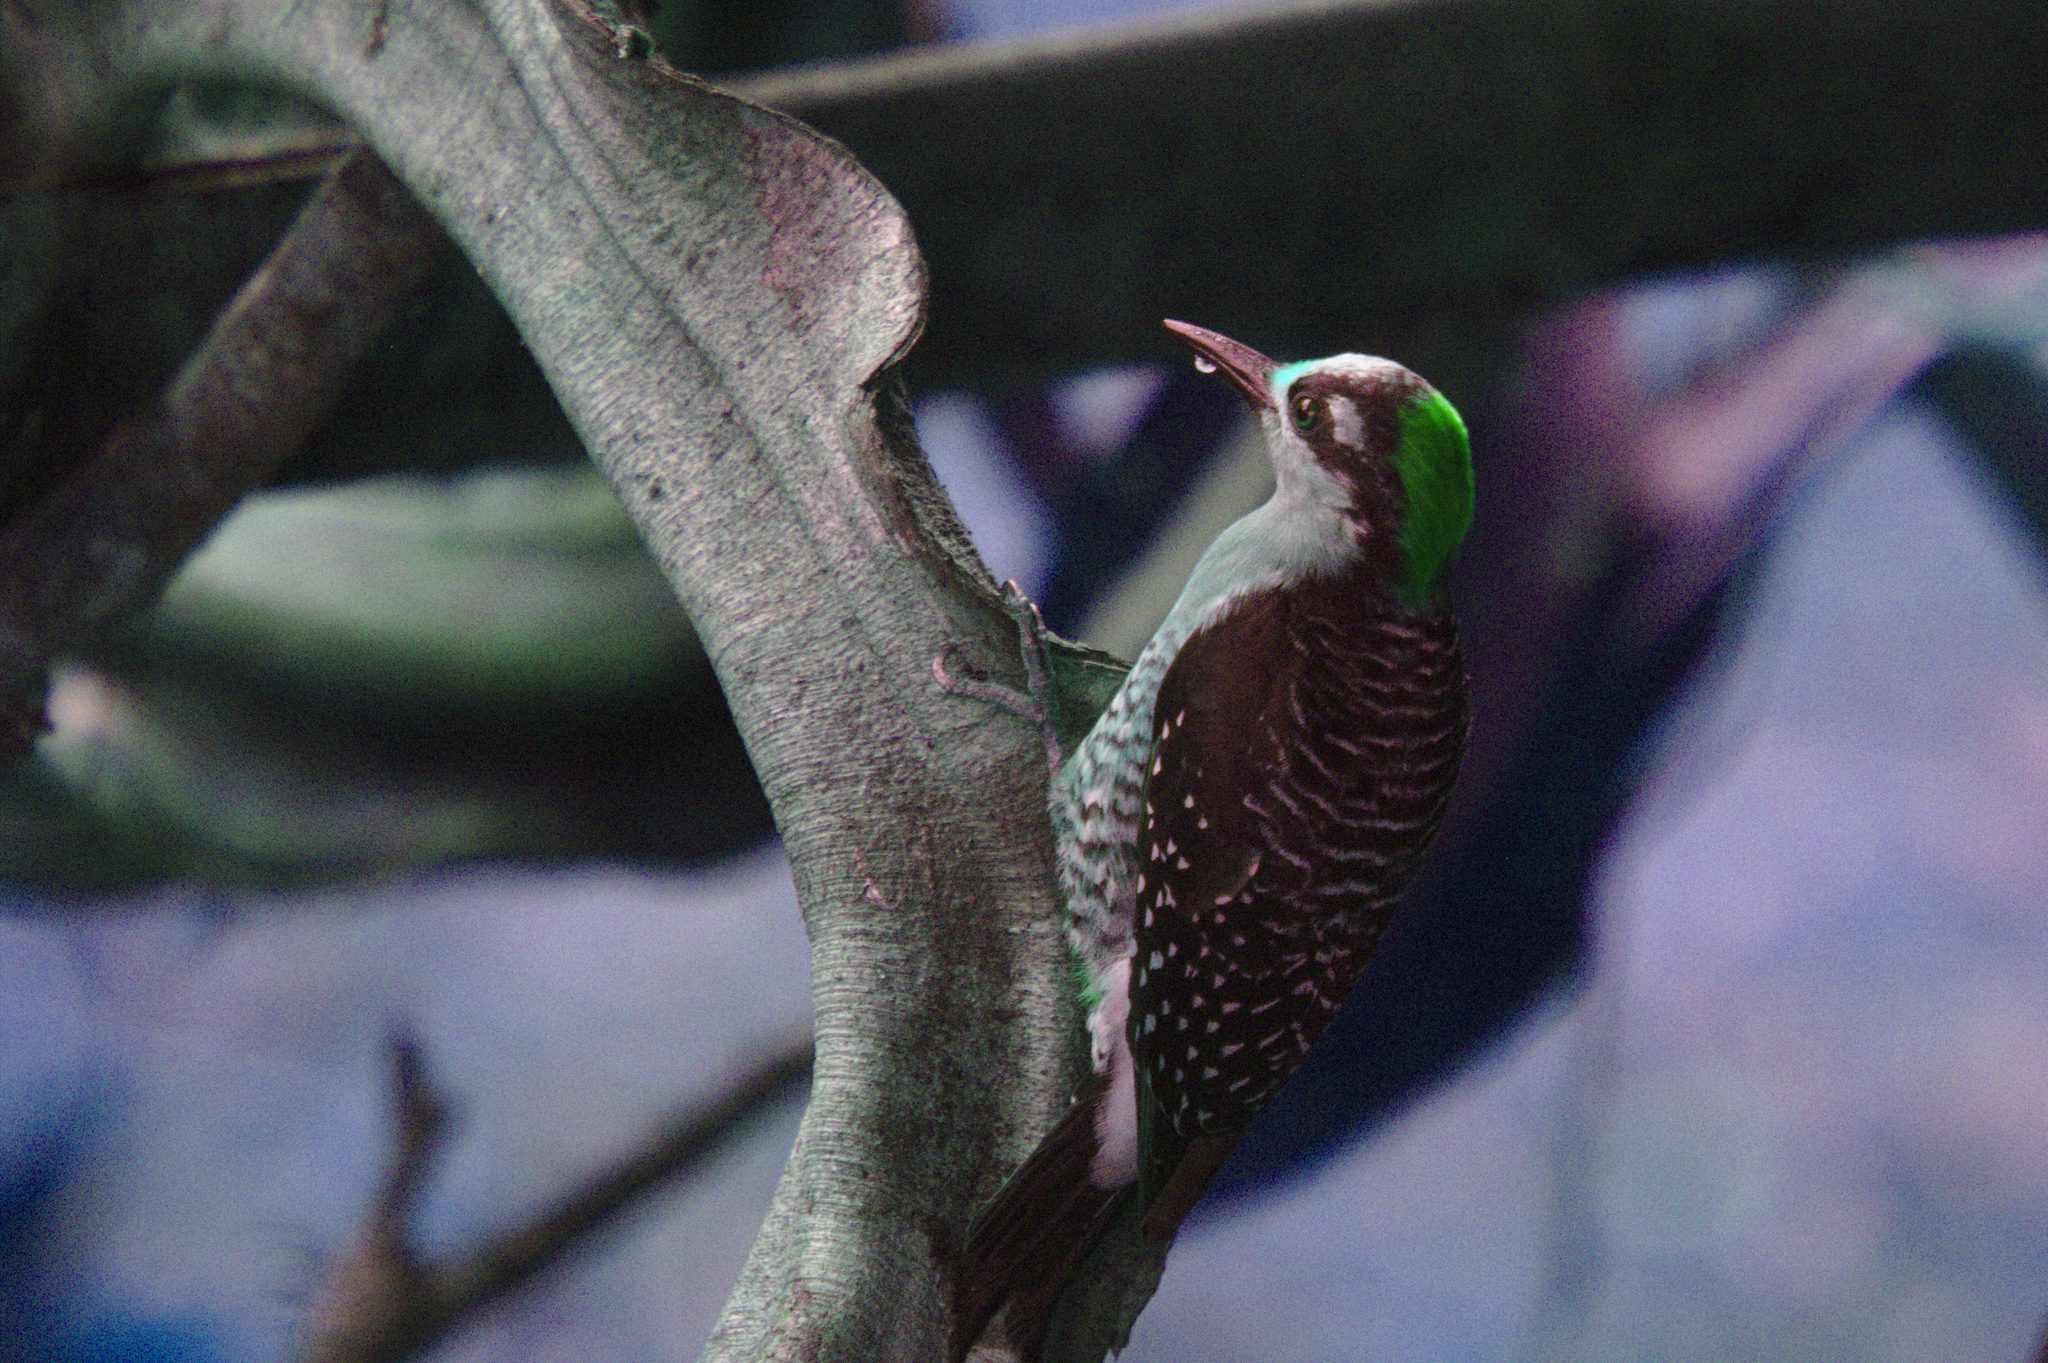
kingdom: Animalia
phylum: Chordata
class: Aves
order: Piciformes
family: Picidae
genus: Melanerpes
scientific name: Melanerpes pucherani
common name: Black-cheeked woodpecker
